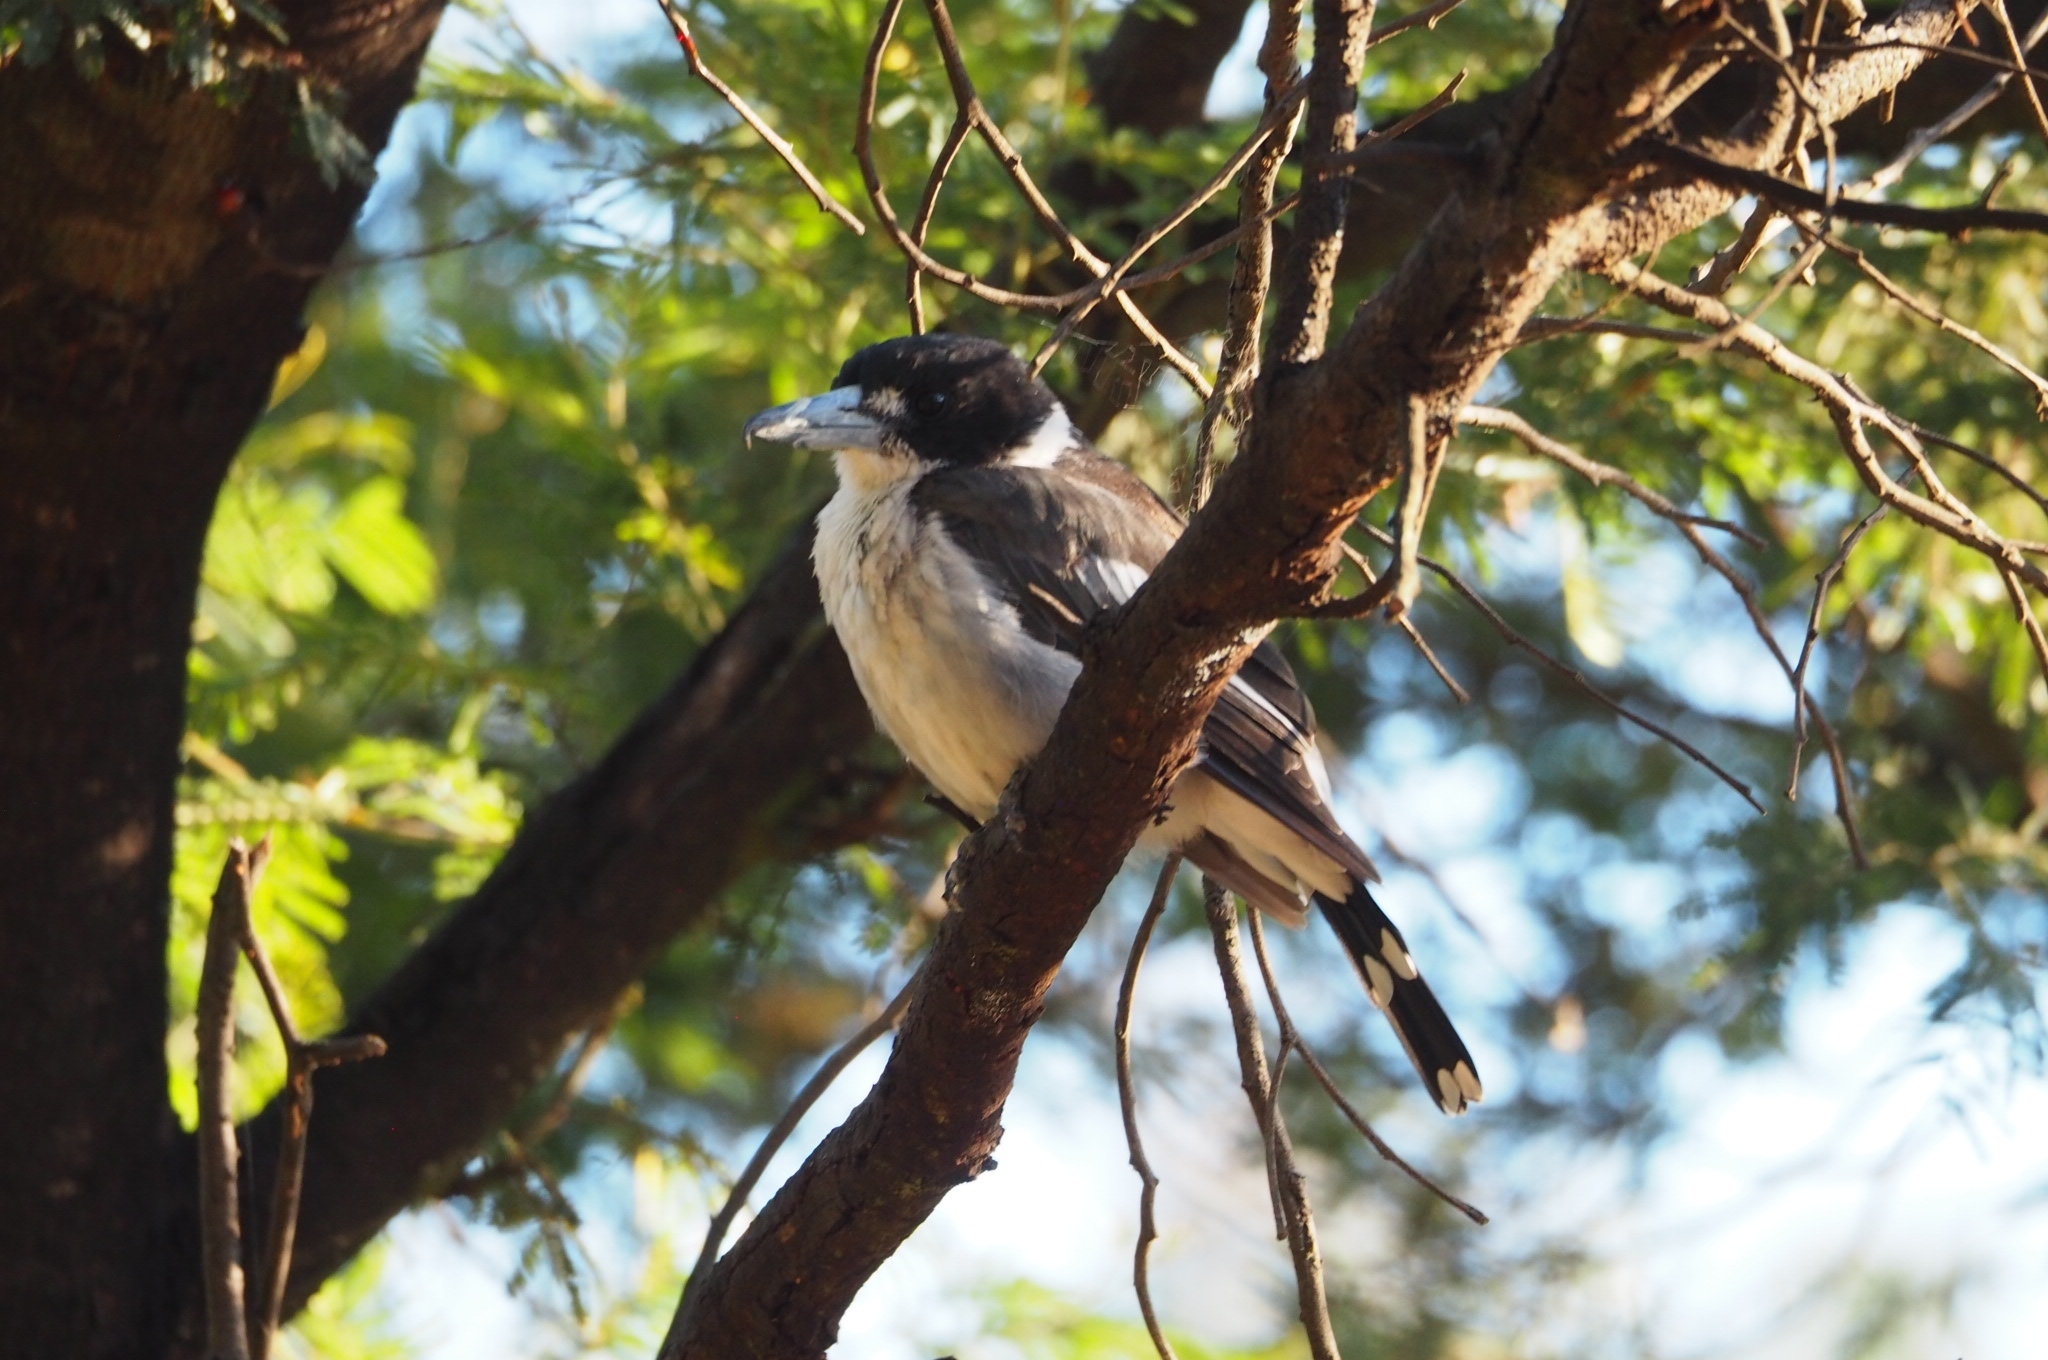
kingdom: Animalia
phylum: Chordata
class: Aves
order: Passeriformes
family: Cracticidae
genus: Cracticus
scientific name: Cracticus torquatus
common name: Grey butcherbird
